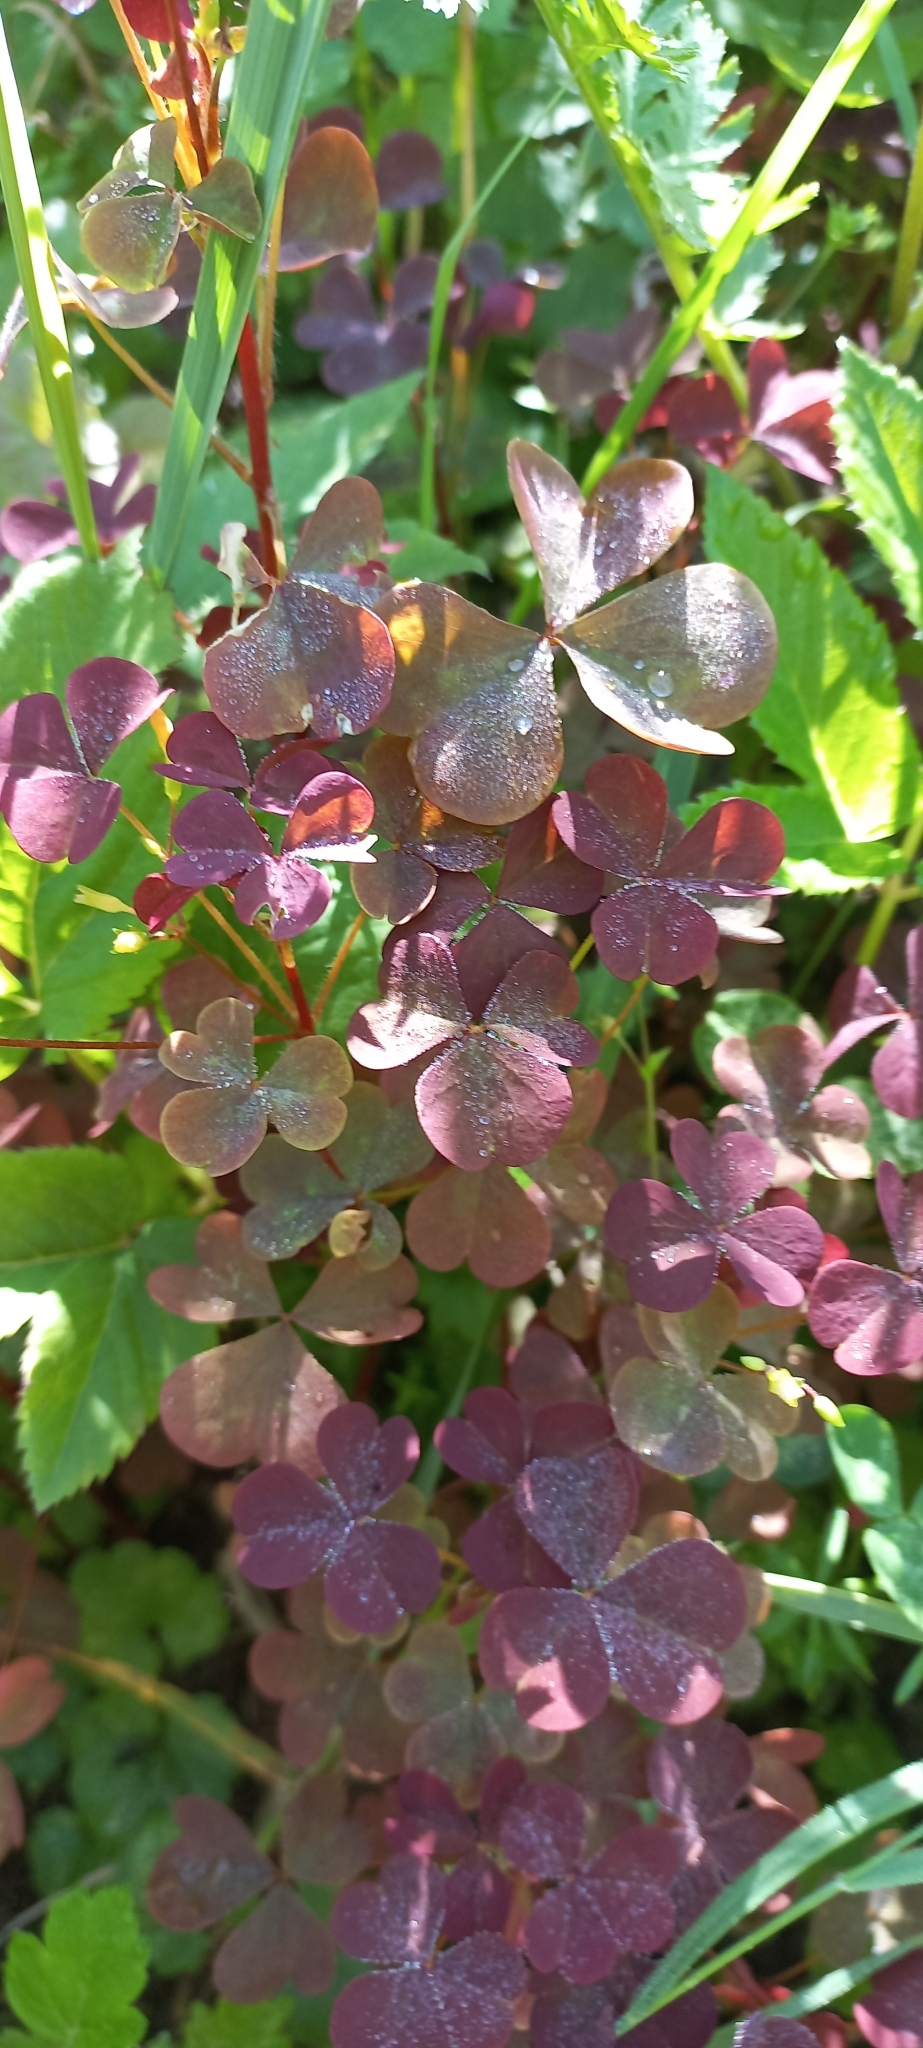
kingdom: Plantae
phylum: Tracheophyta
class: Magnoliopsida
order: Oxalidales
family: Oxalidaceae
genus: Oxalis
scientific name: Oxalis stricta
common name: Upright yellow-sorrel
